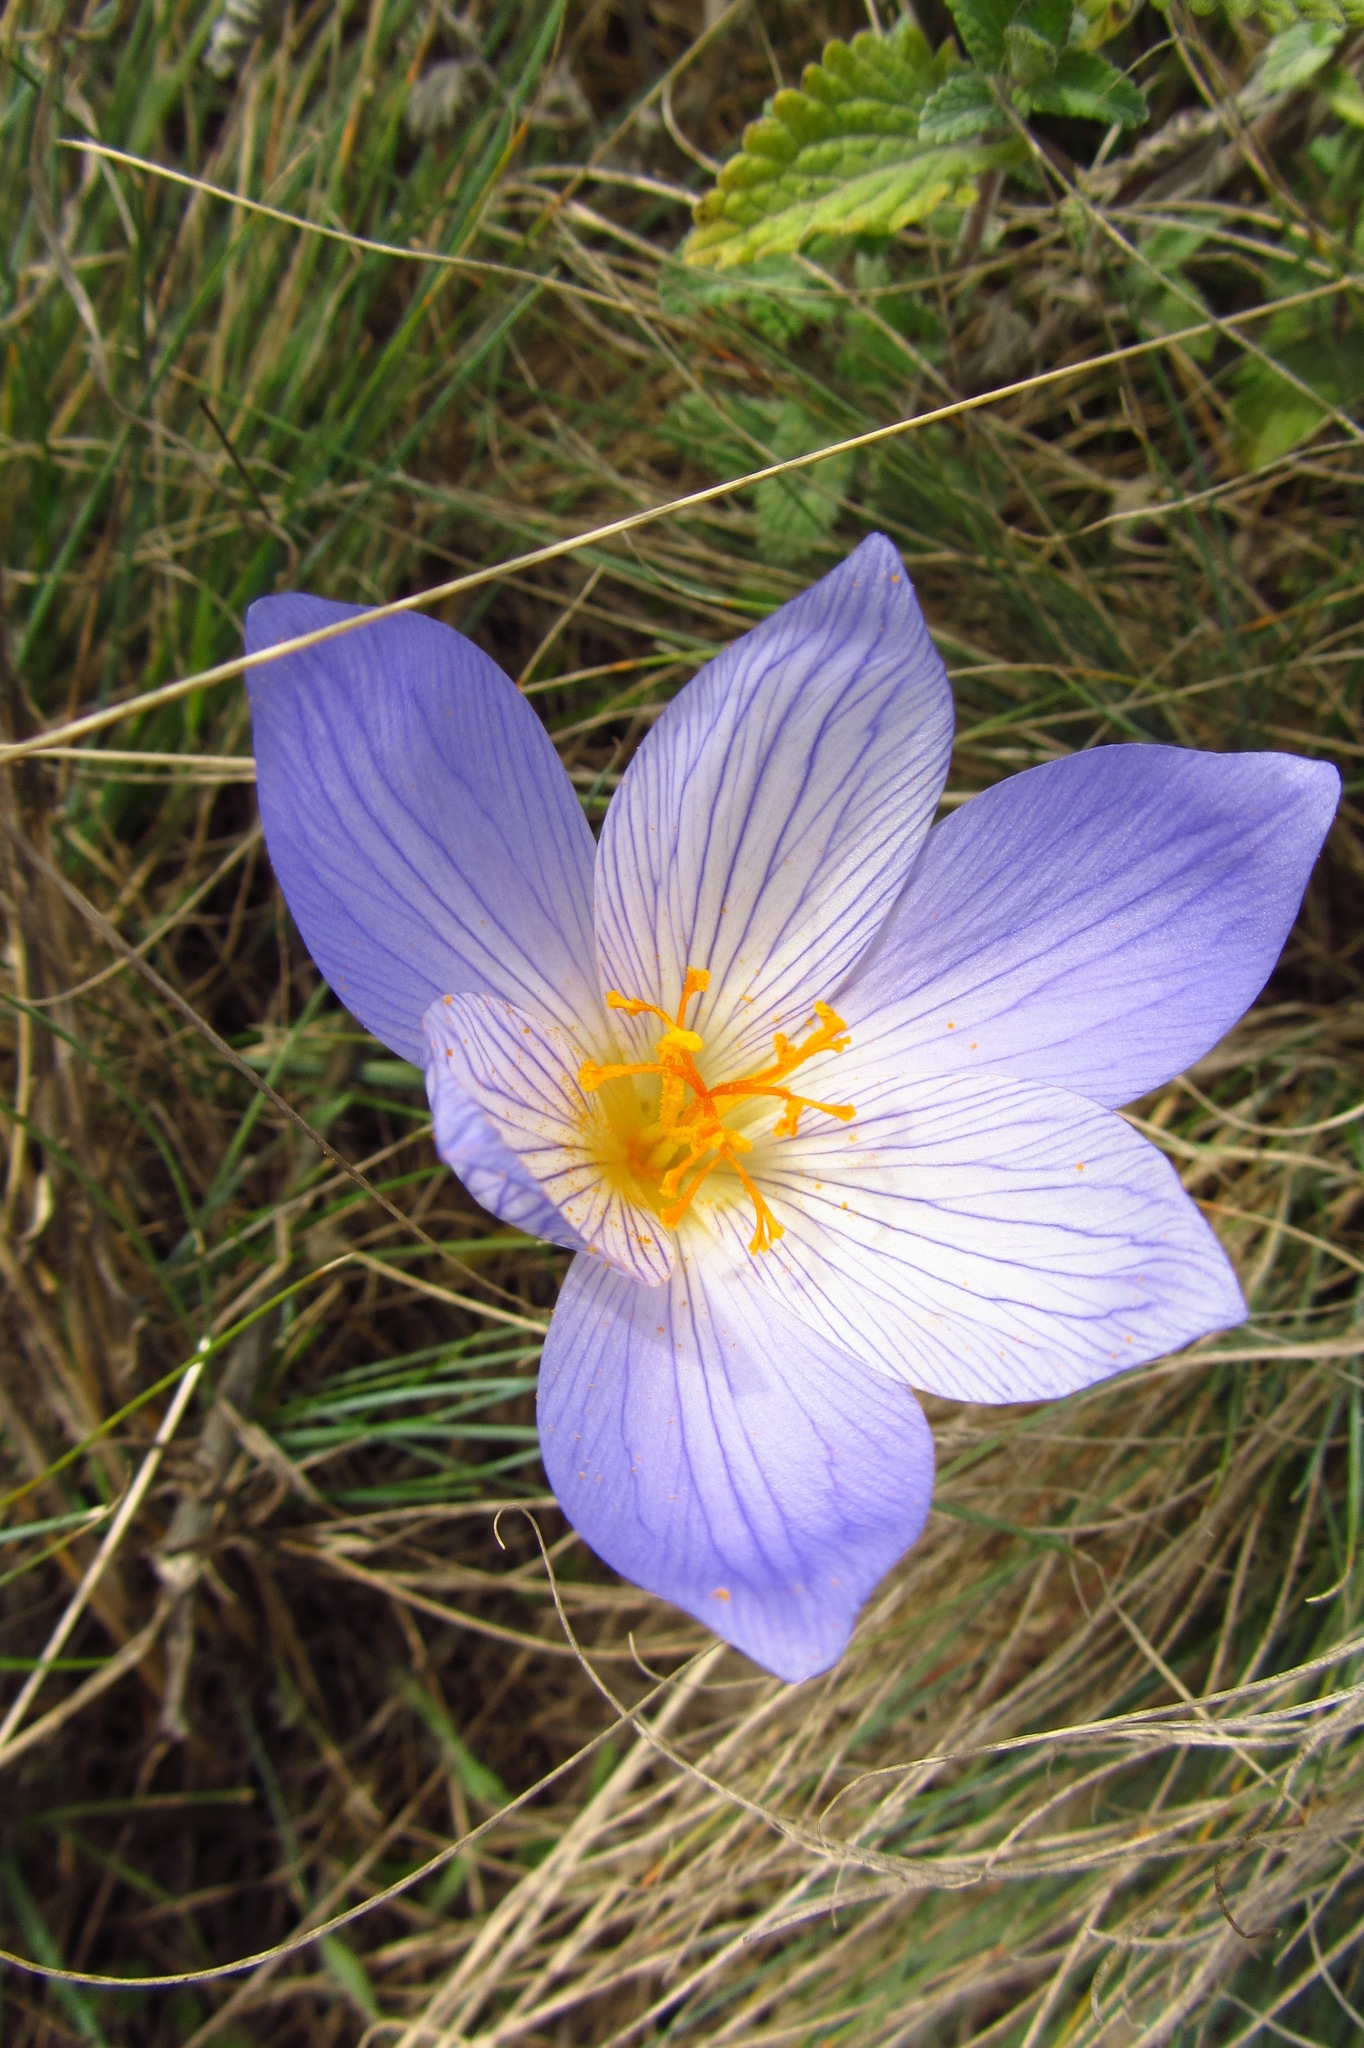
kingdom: Plantae
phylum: Tracheophyta
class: Liliopsida
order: Asparagales
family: Iridaceae
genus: Crocus
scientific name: Crocus speciosus
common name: Bieberstein's crocus
